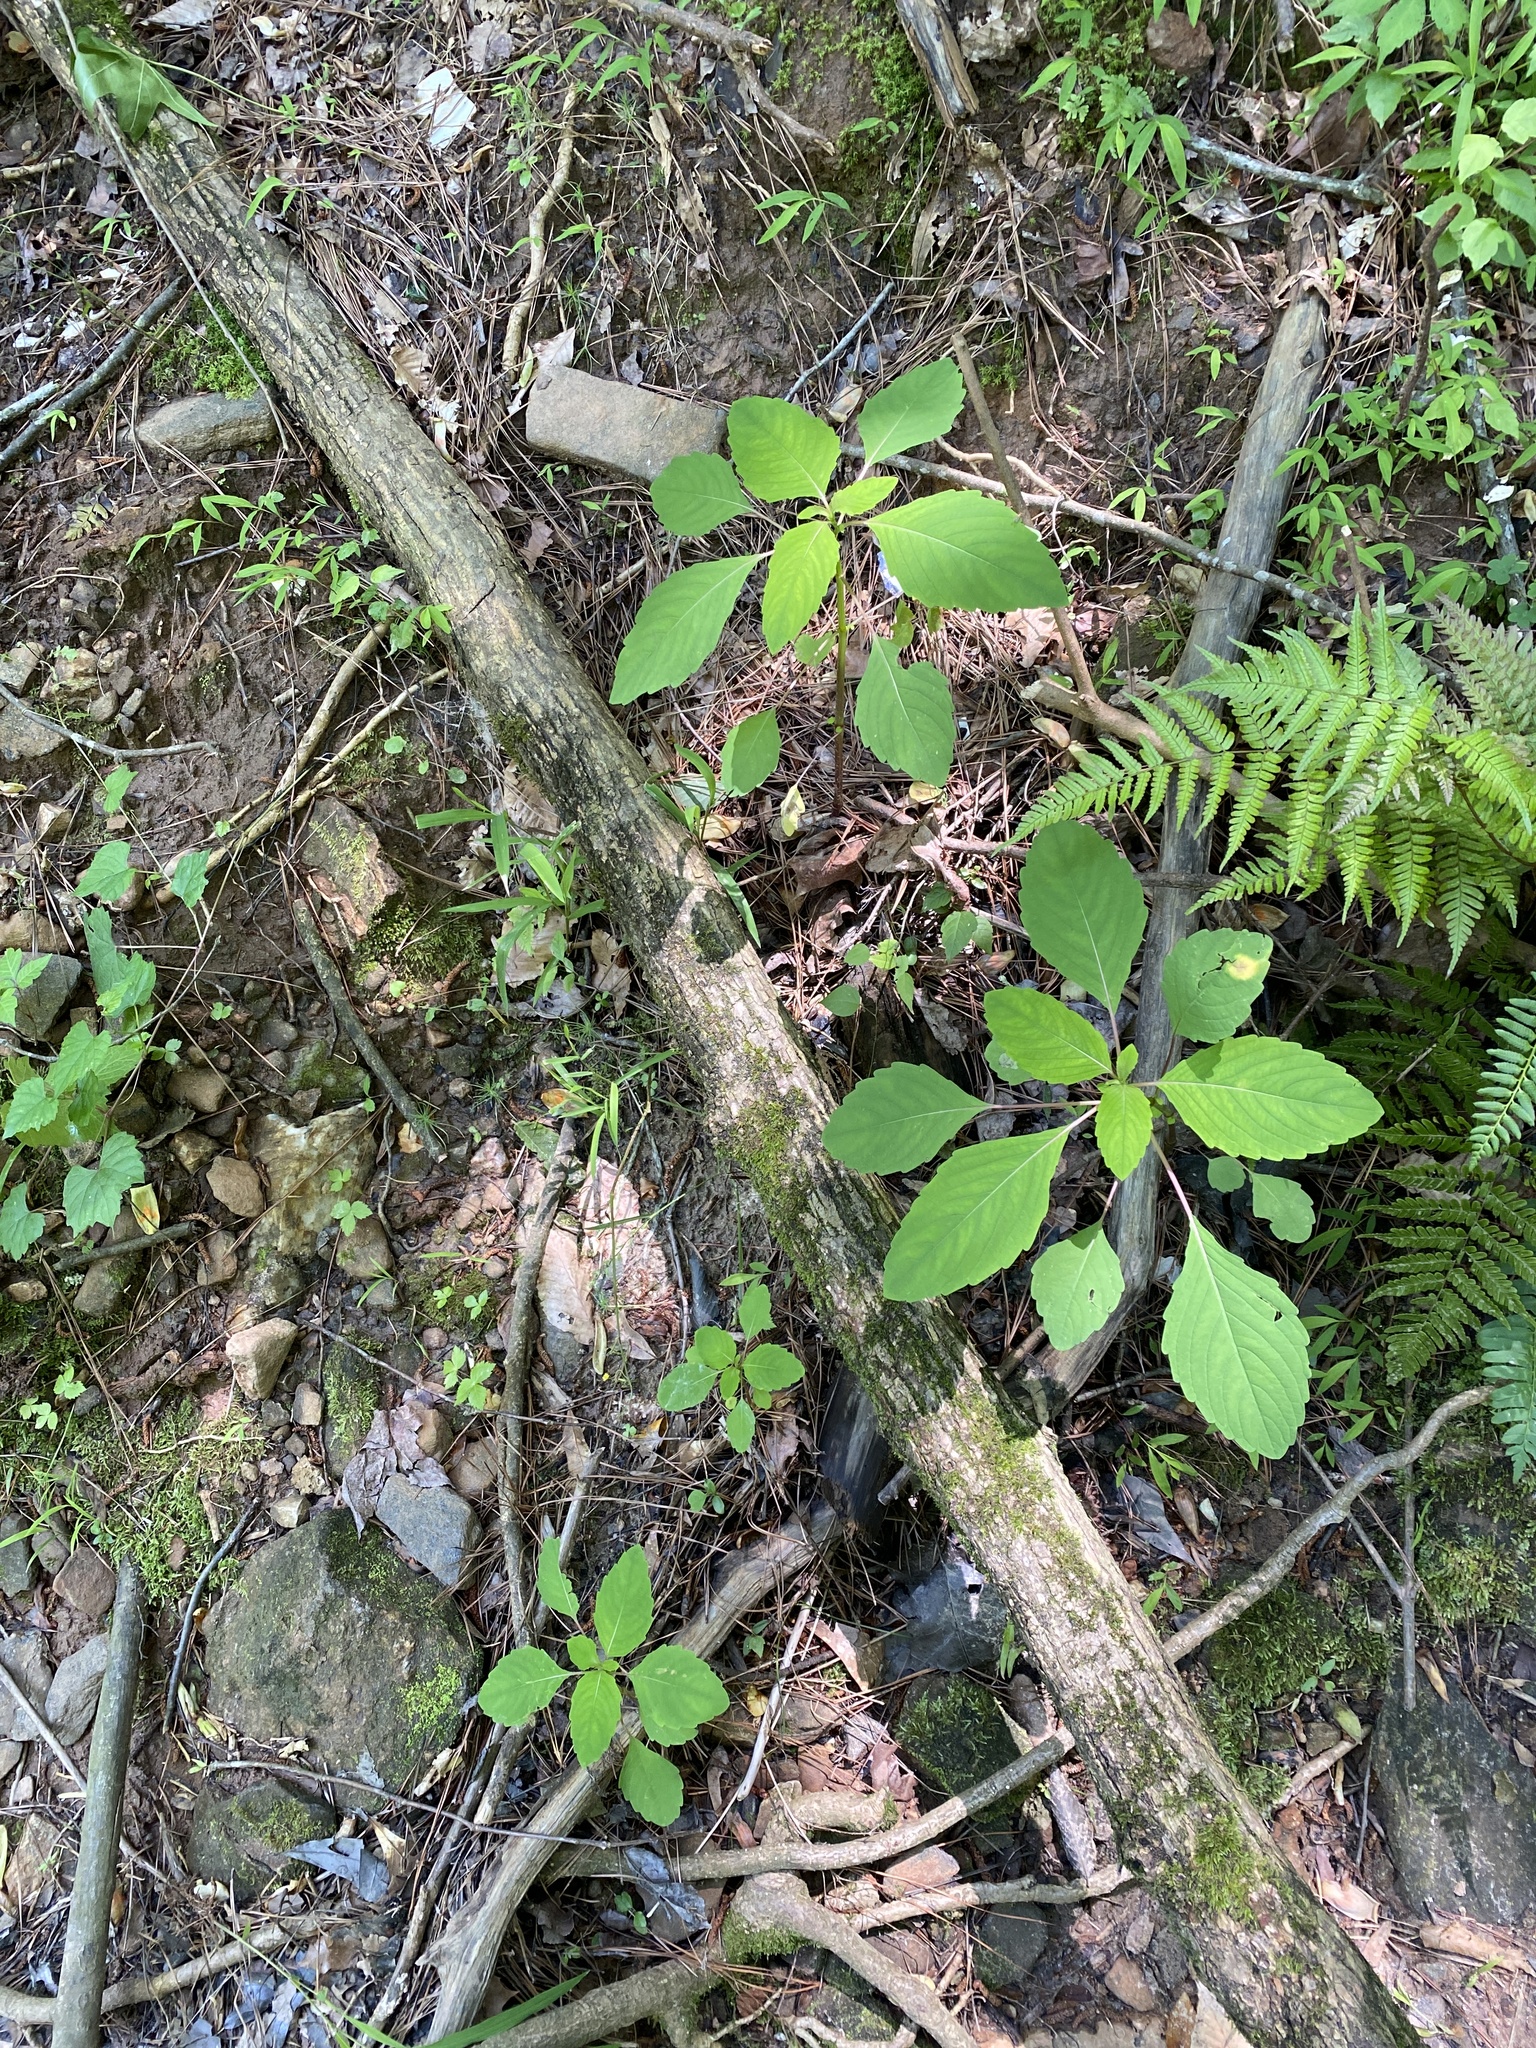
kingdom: Plantae
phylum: Tracheophyta
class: Magnoliopsida
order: Ericales
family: Balsaminaceae
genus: Impatiens
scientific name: Impatiens capensis
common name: Orange balsam
